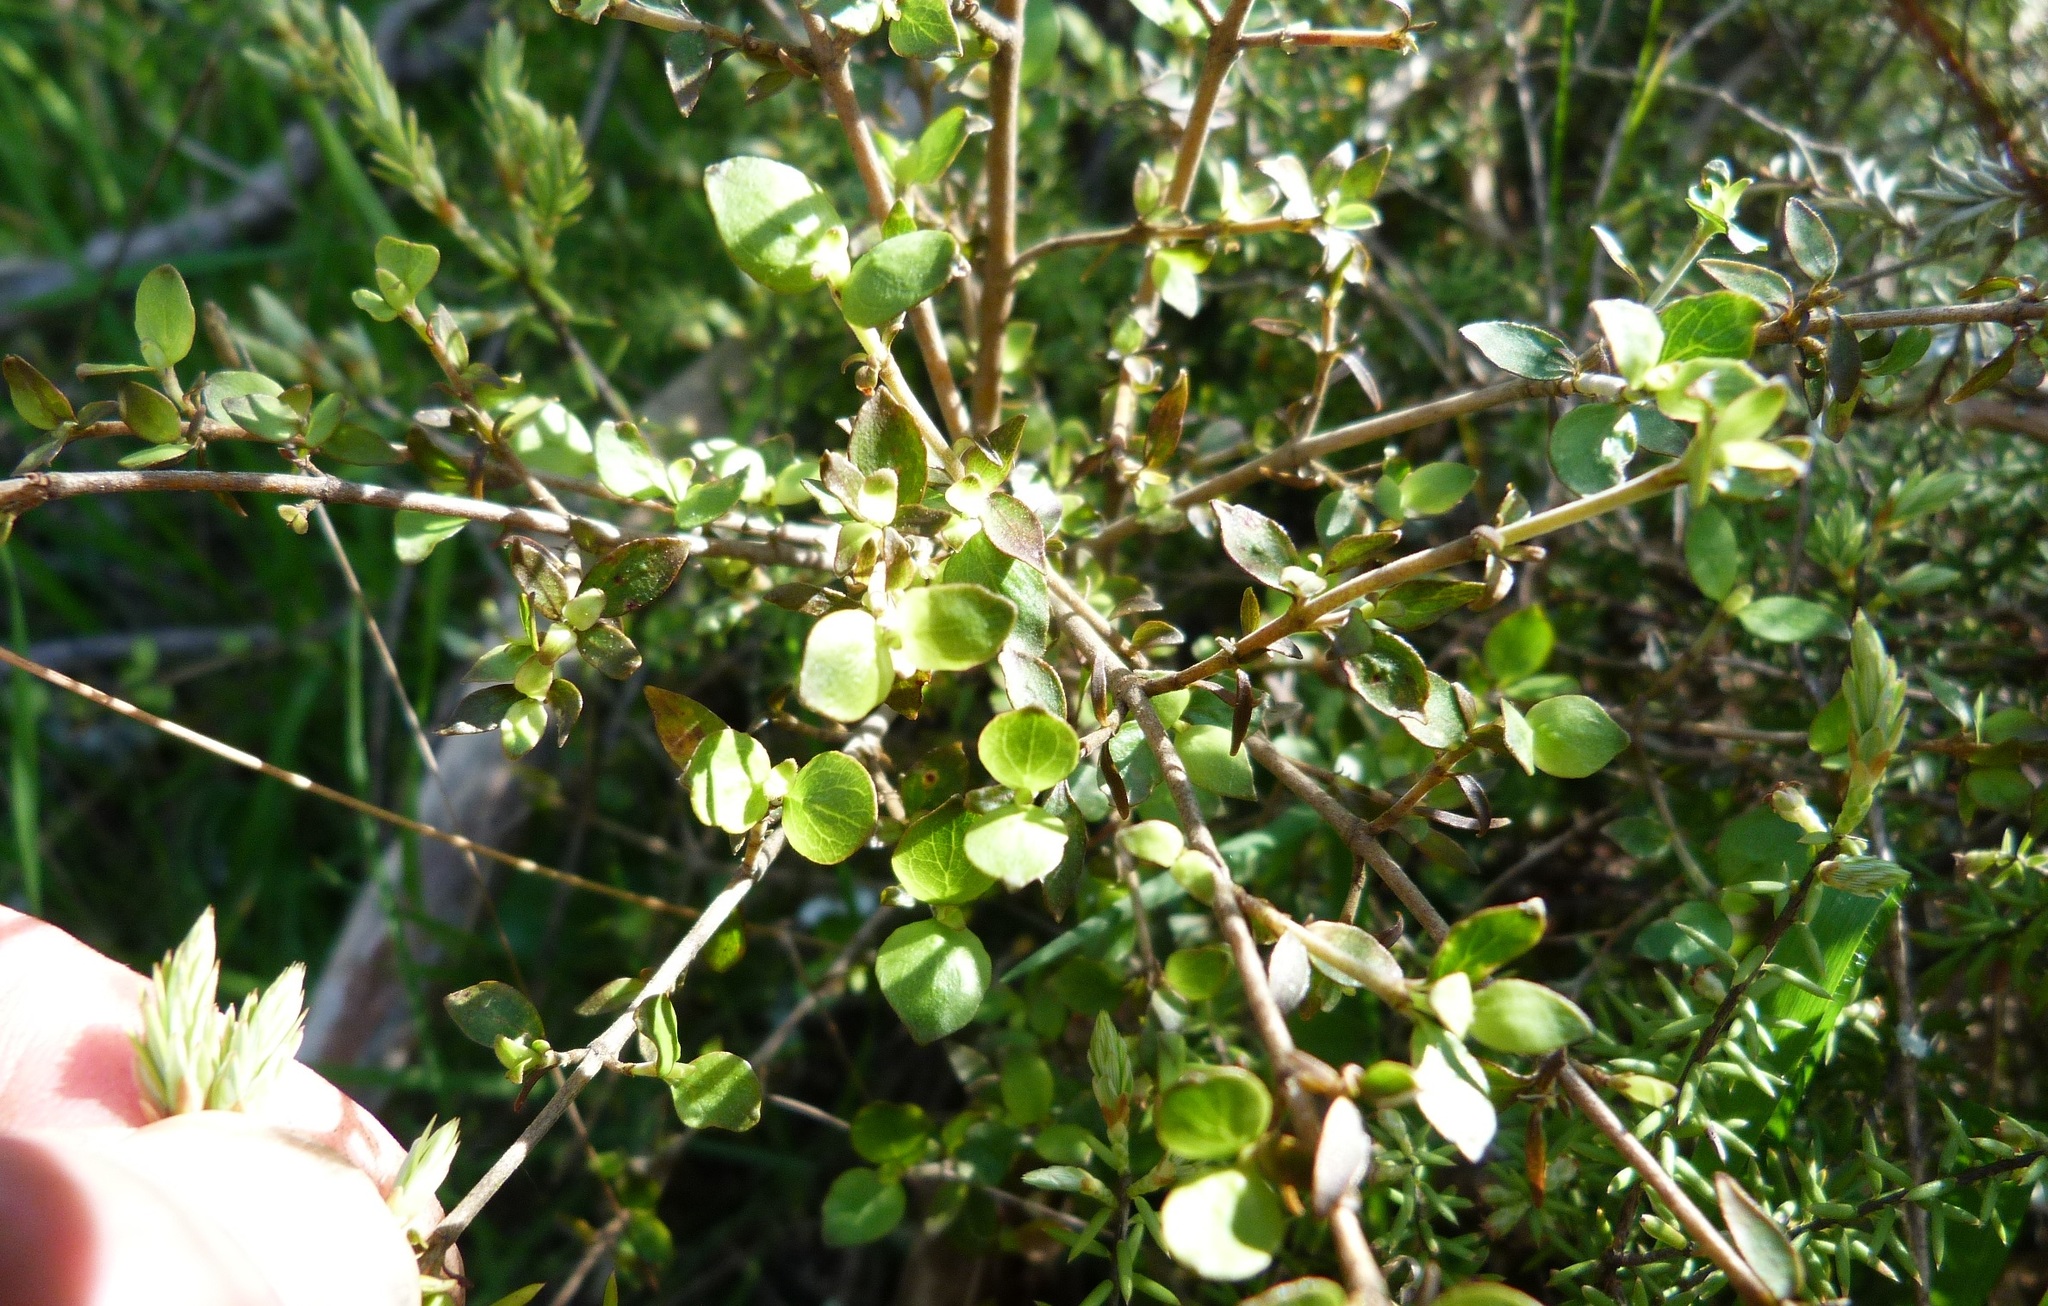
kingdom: Plantae
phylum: Tracheophyta
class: Magnoliopsida
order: Gentianales
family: Rubiaceae
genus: Coprosma
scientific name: Coprosma rhamnoides
